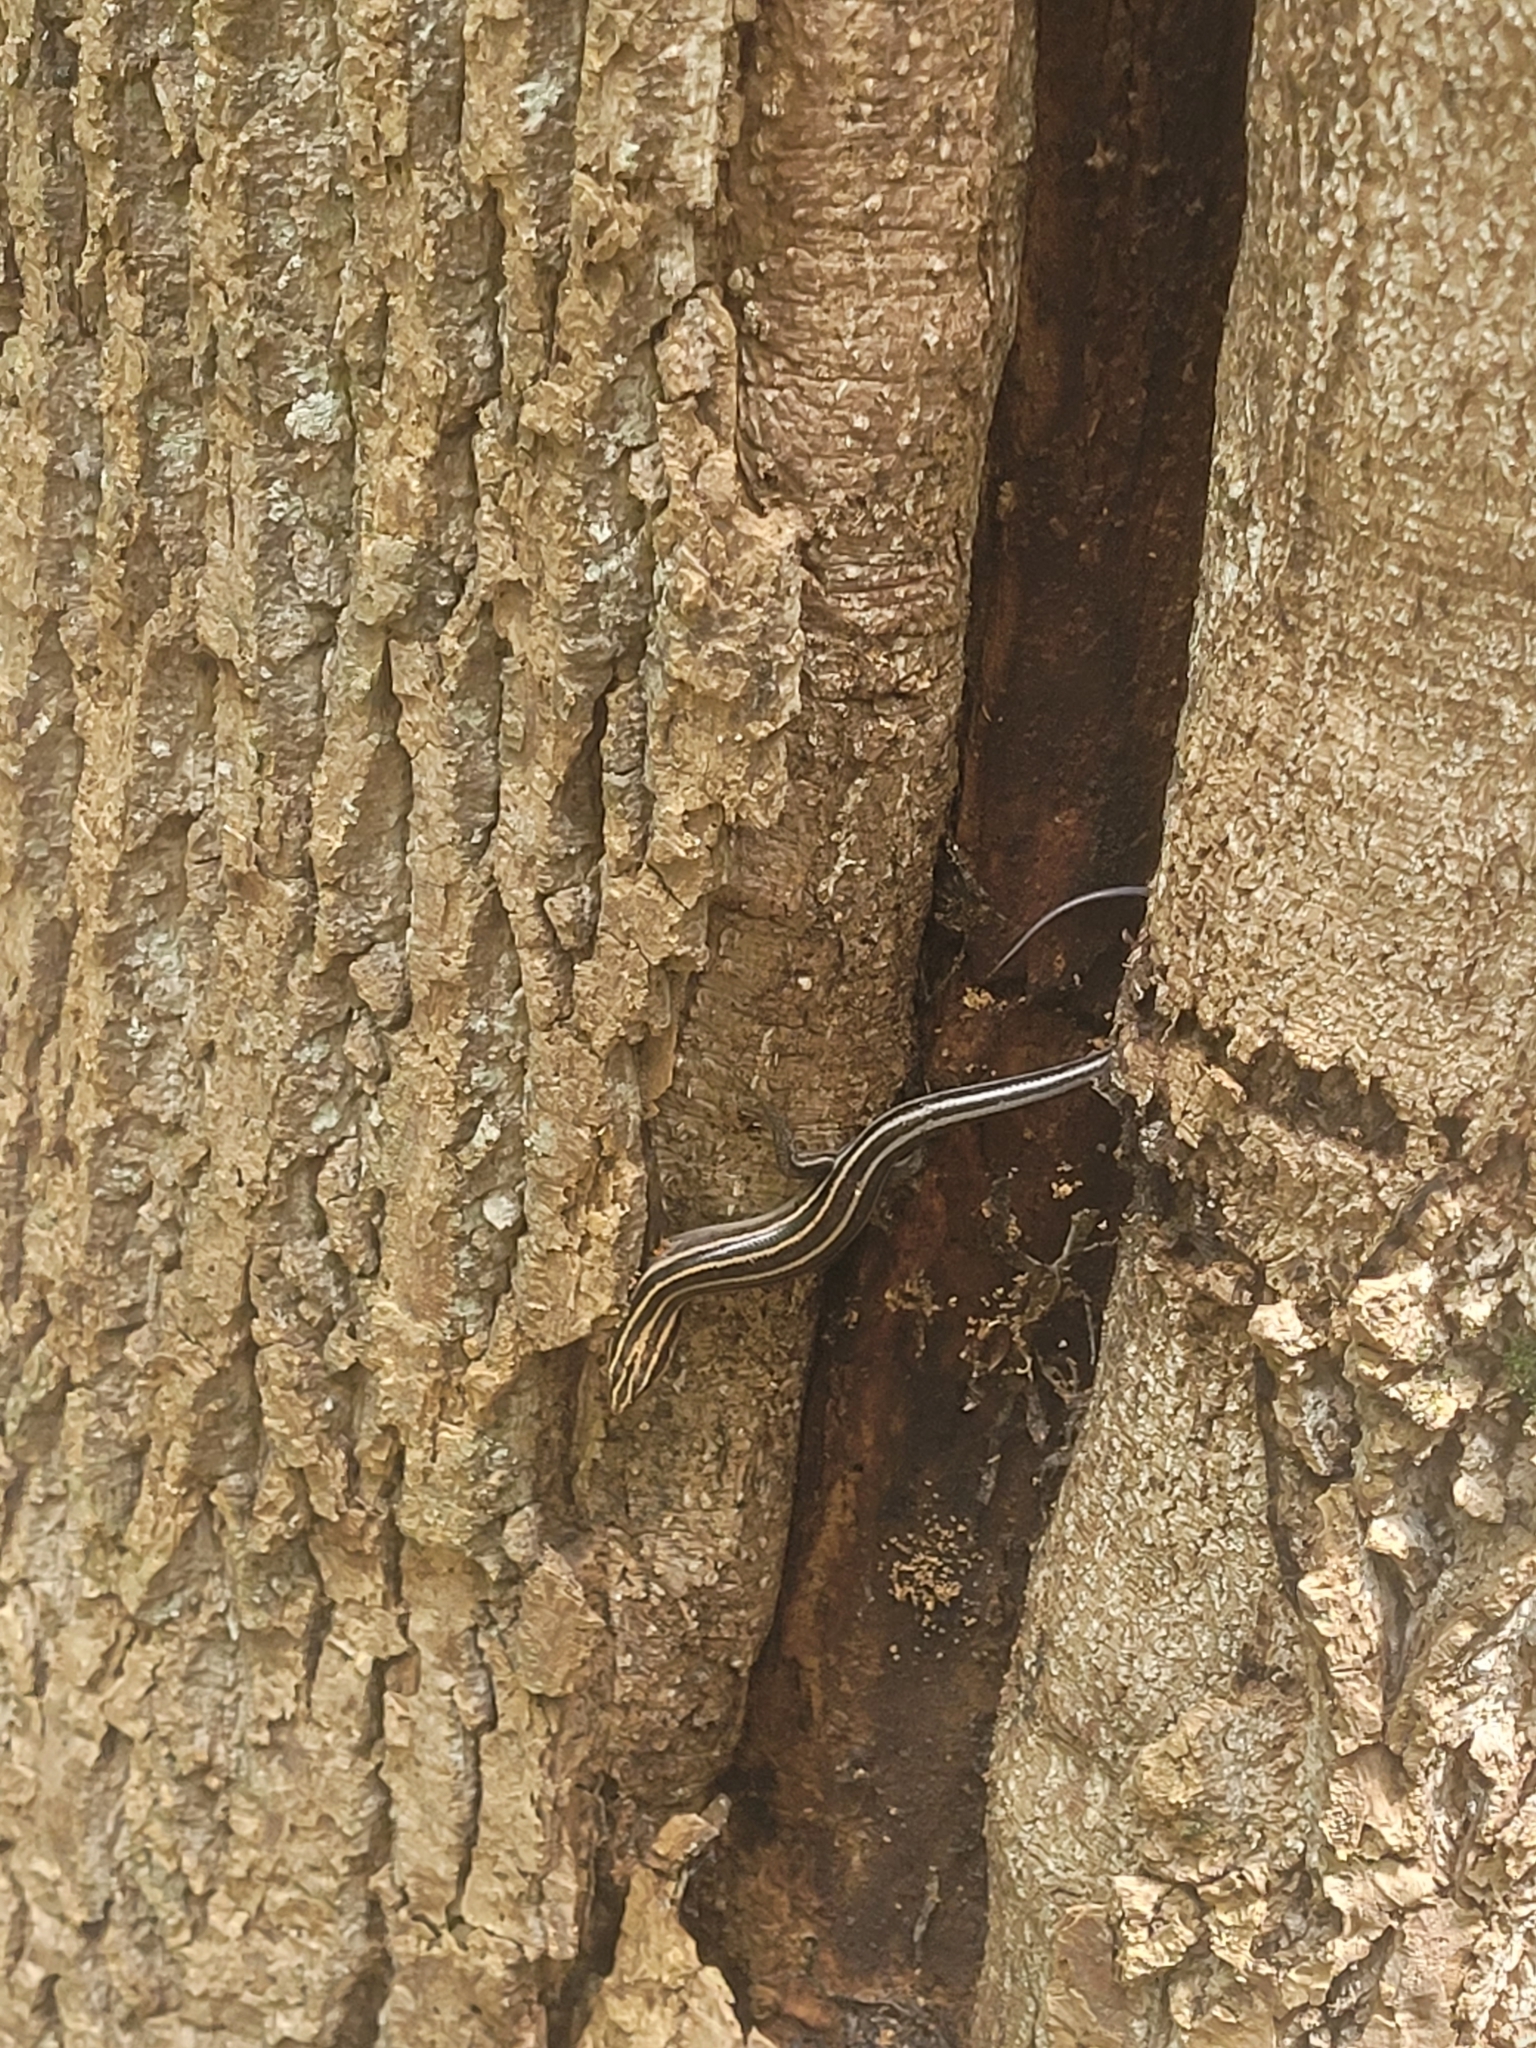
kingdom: Animalia
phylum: Chordata
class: Squamata
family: Scincidae
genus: Plestiodon
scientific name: Plestiodon fasciatus
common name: Five-lined skink
